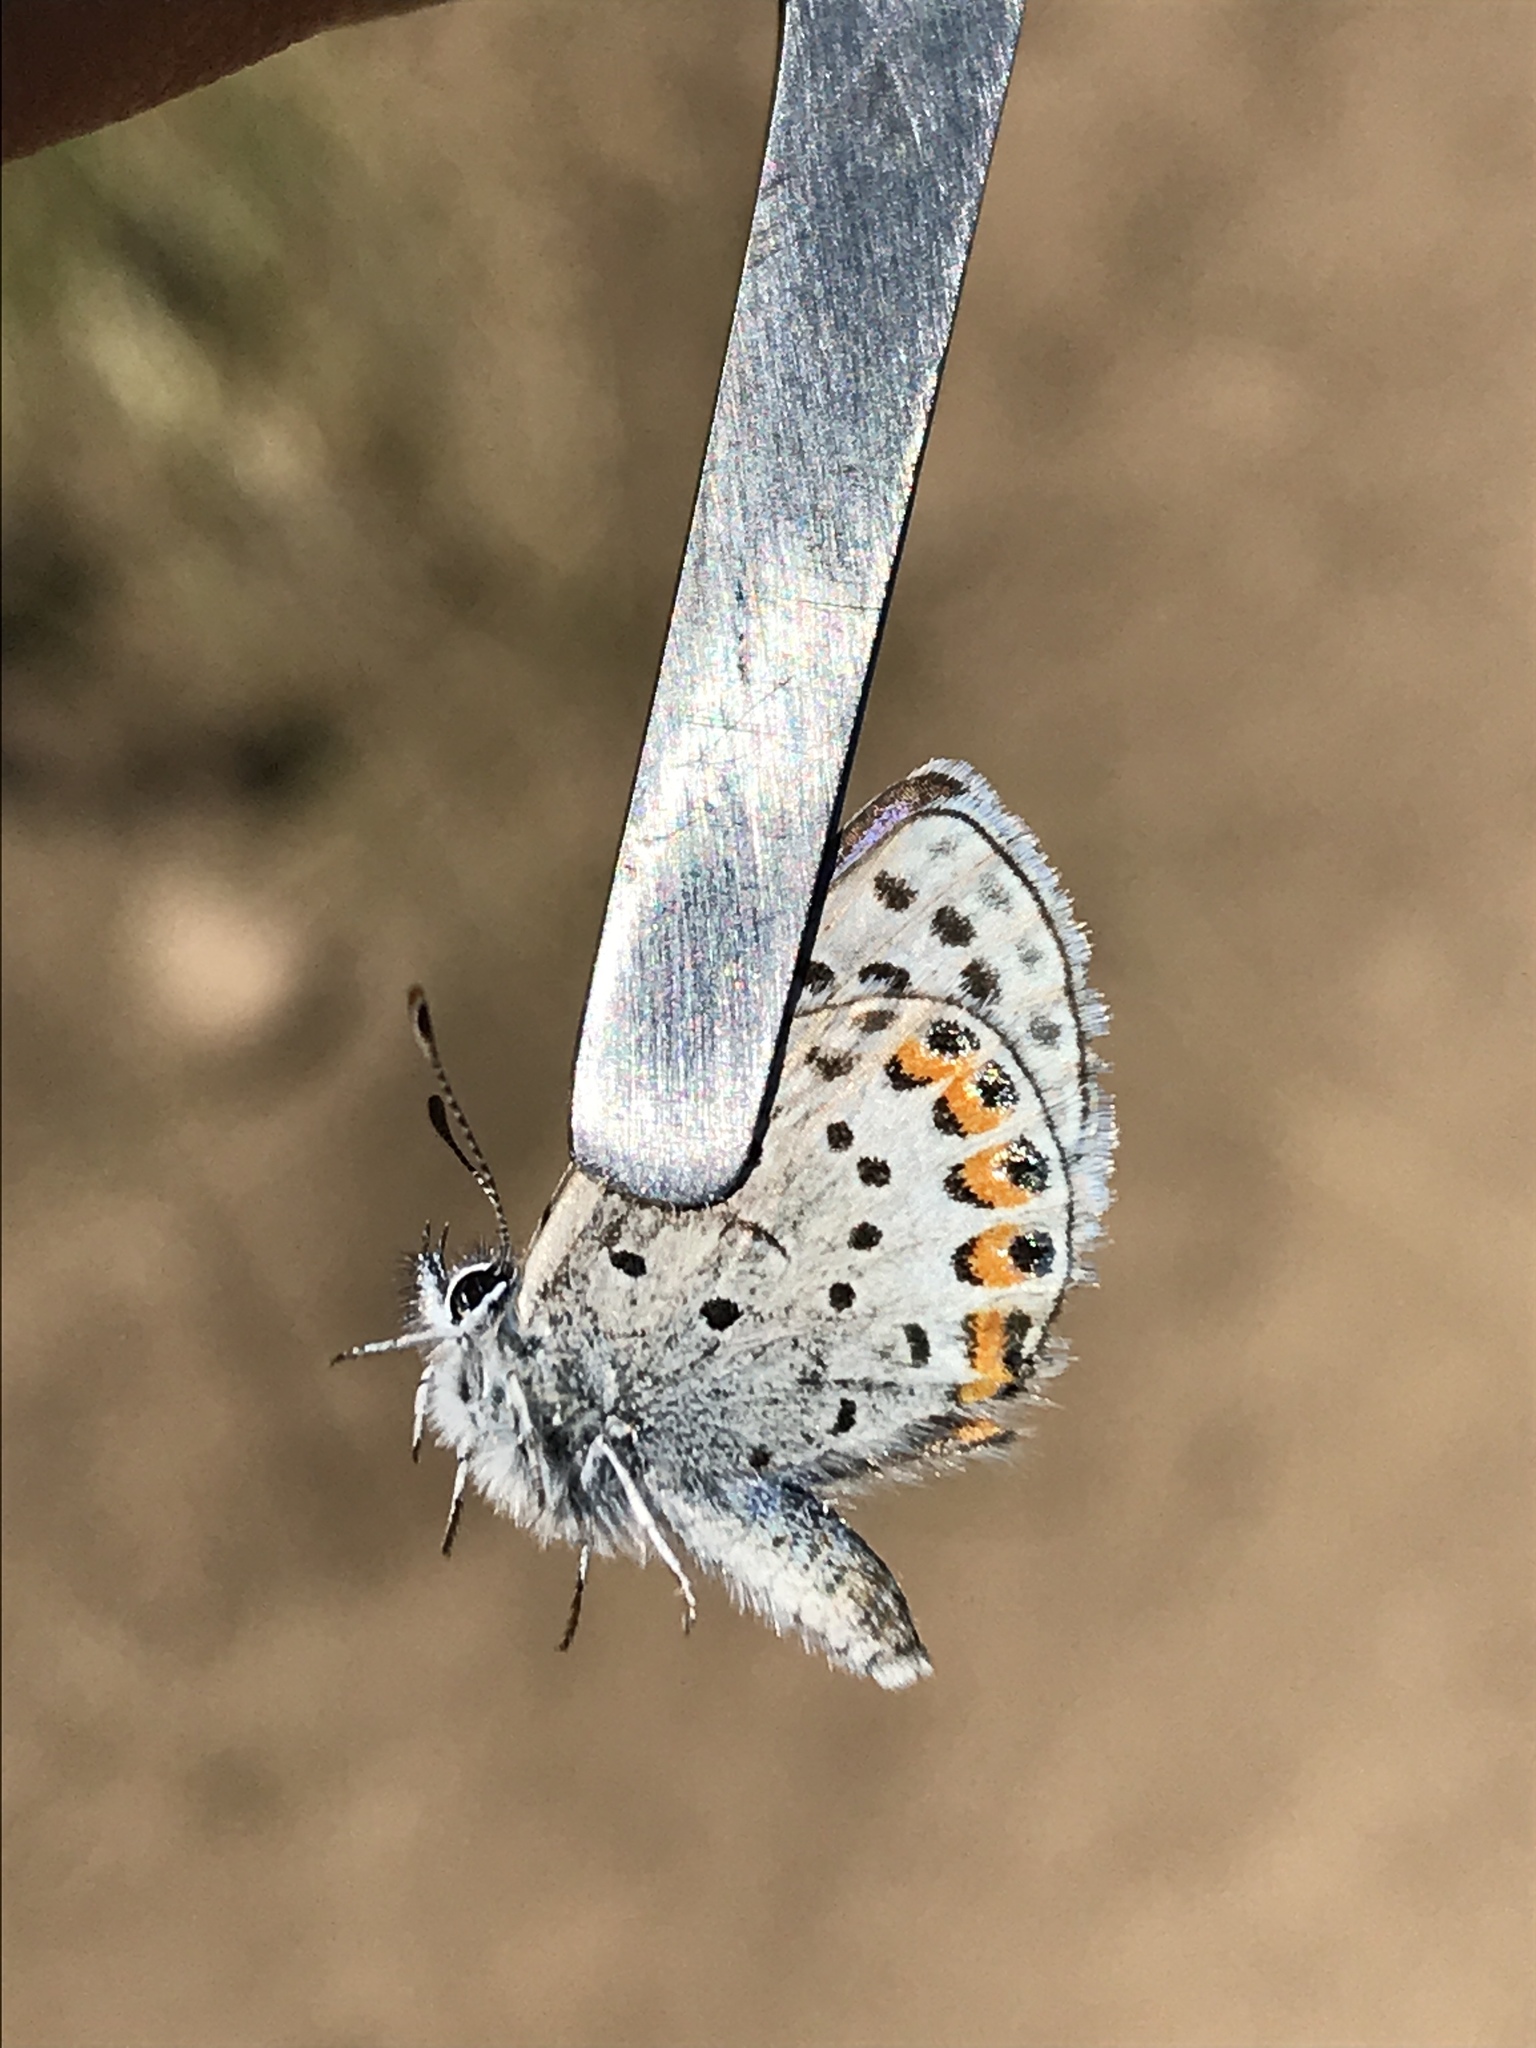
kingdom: Animalia
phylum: Arthropoda
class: Insecta
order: Lepidoptera
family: Lycaenidae
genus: Icaricia
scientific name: Icaricia lupini
